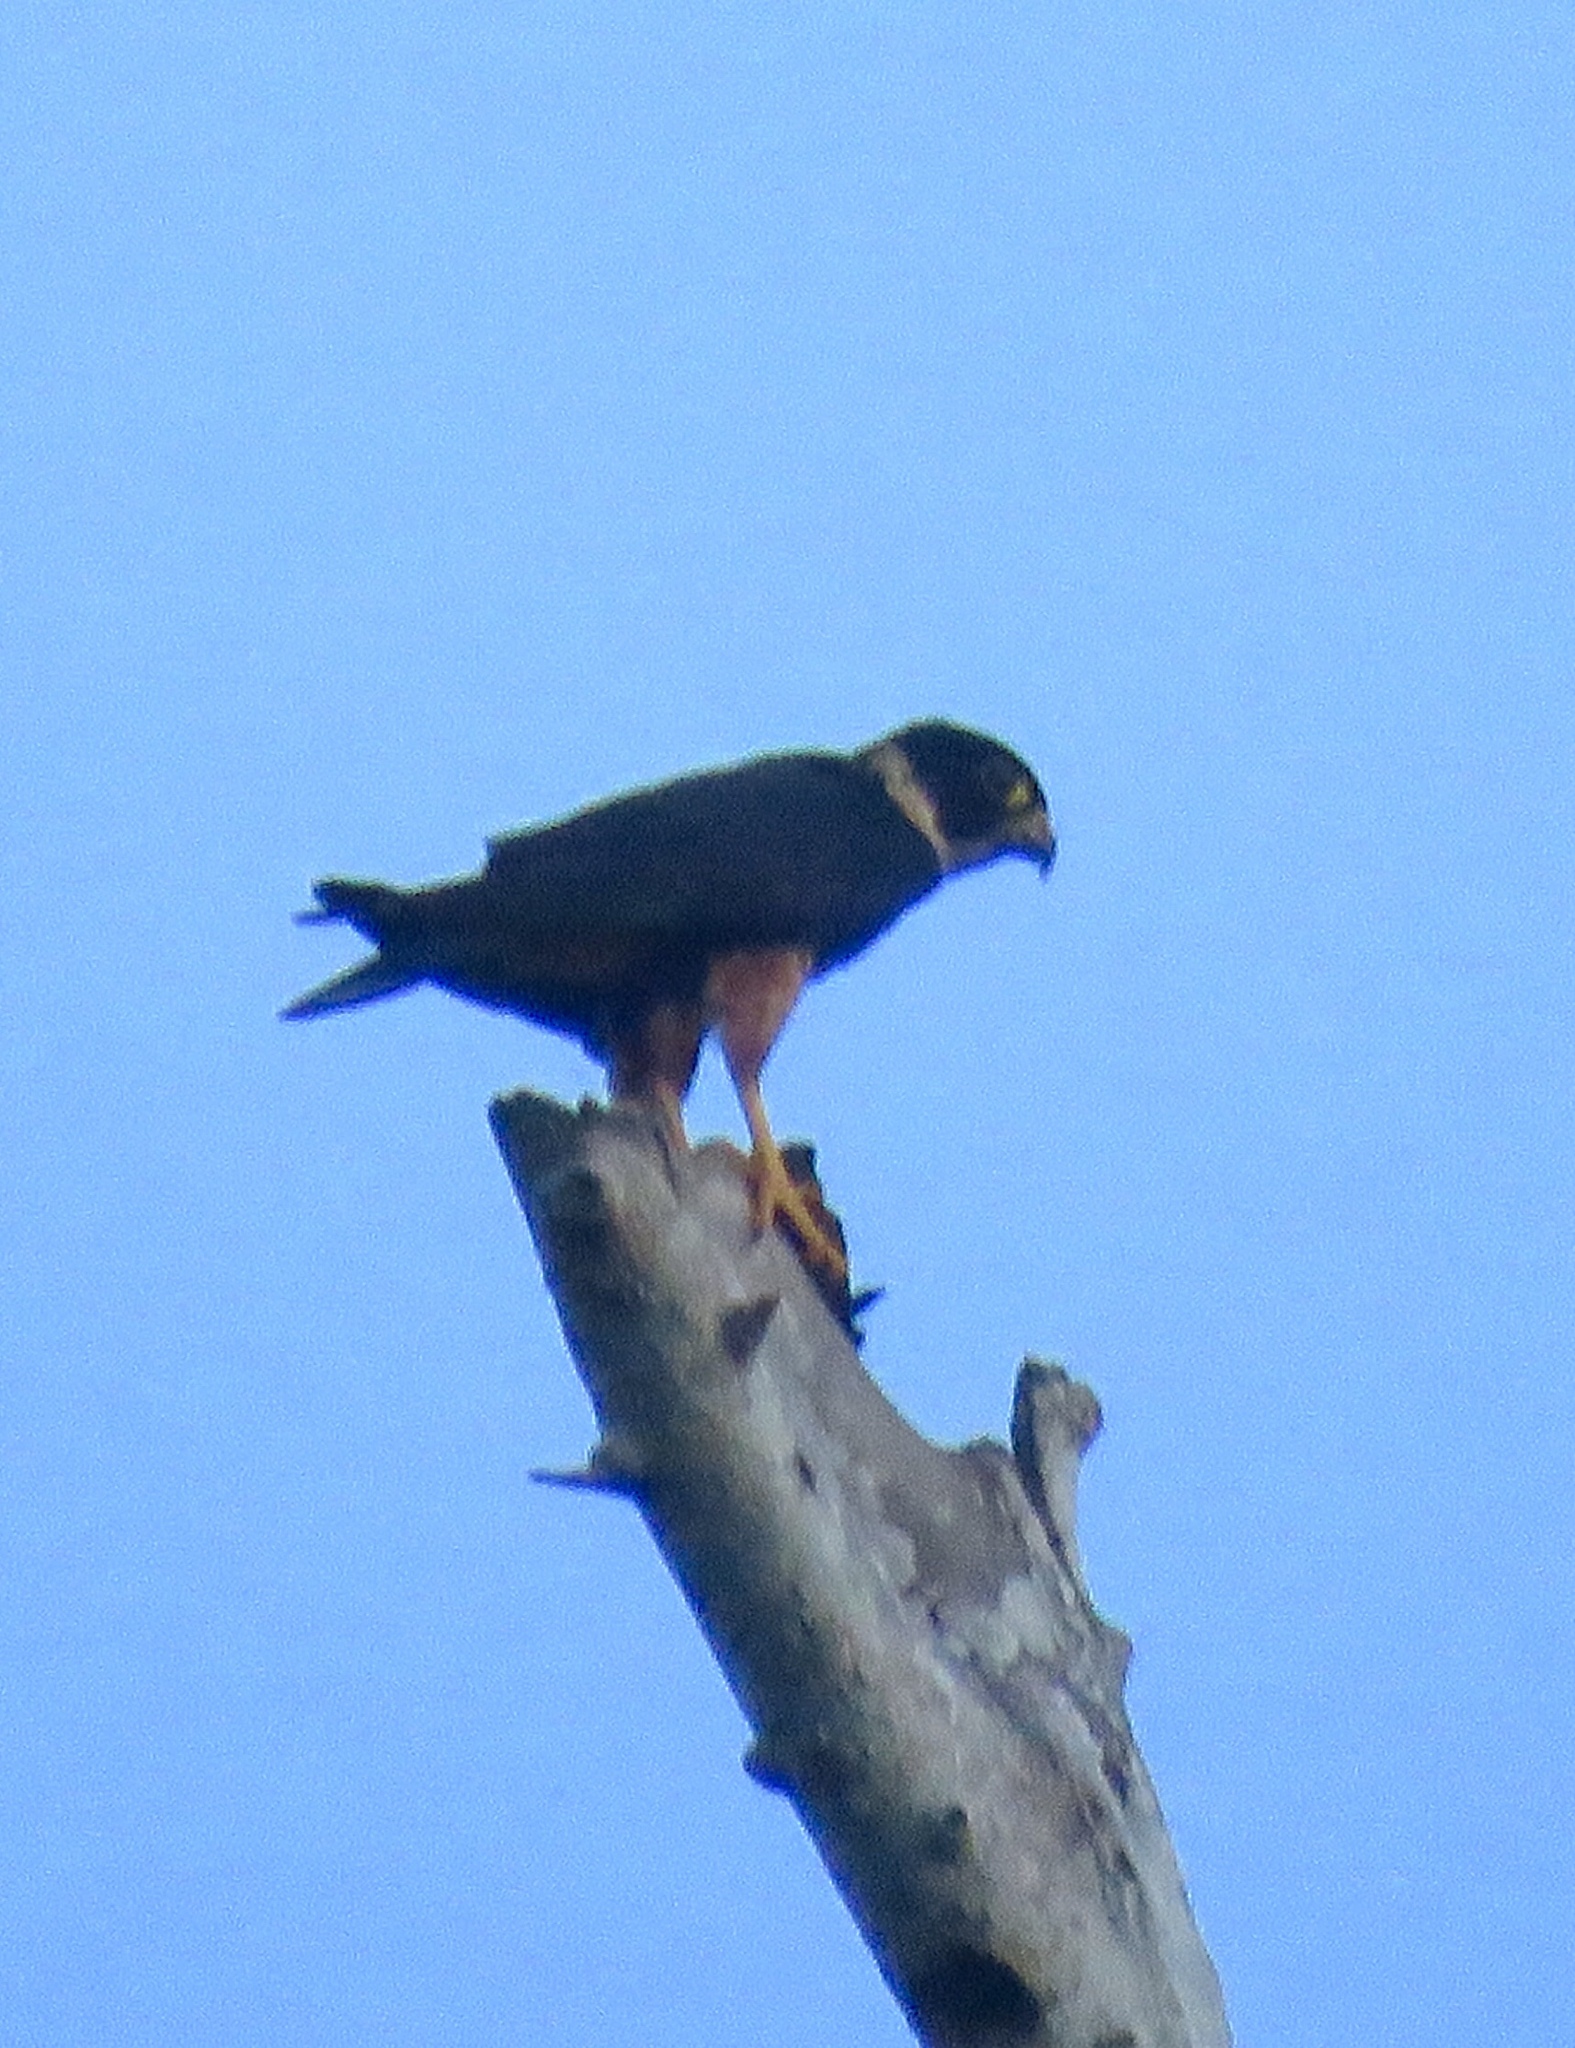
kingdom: Animalia
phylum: Chordata
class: Aves
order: Falconiformes
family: Falconidae
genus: Falco
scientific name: Falco rufigularis
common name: Bat falcon
